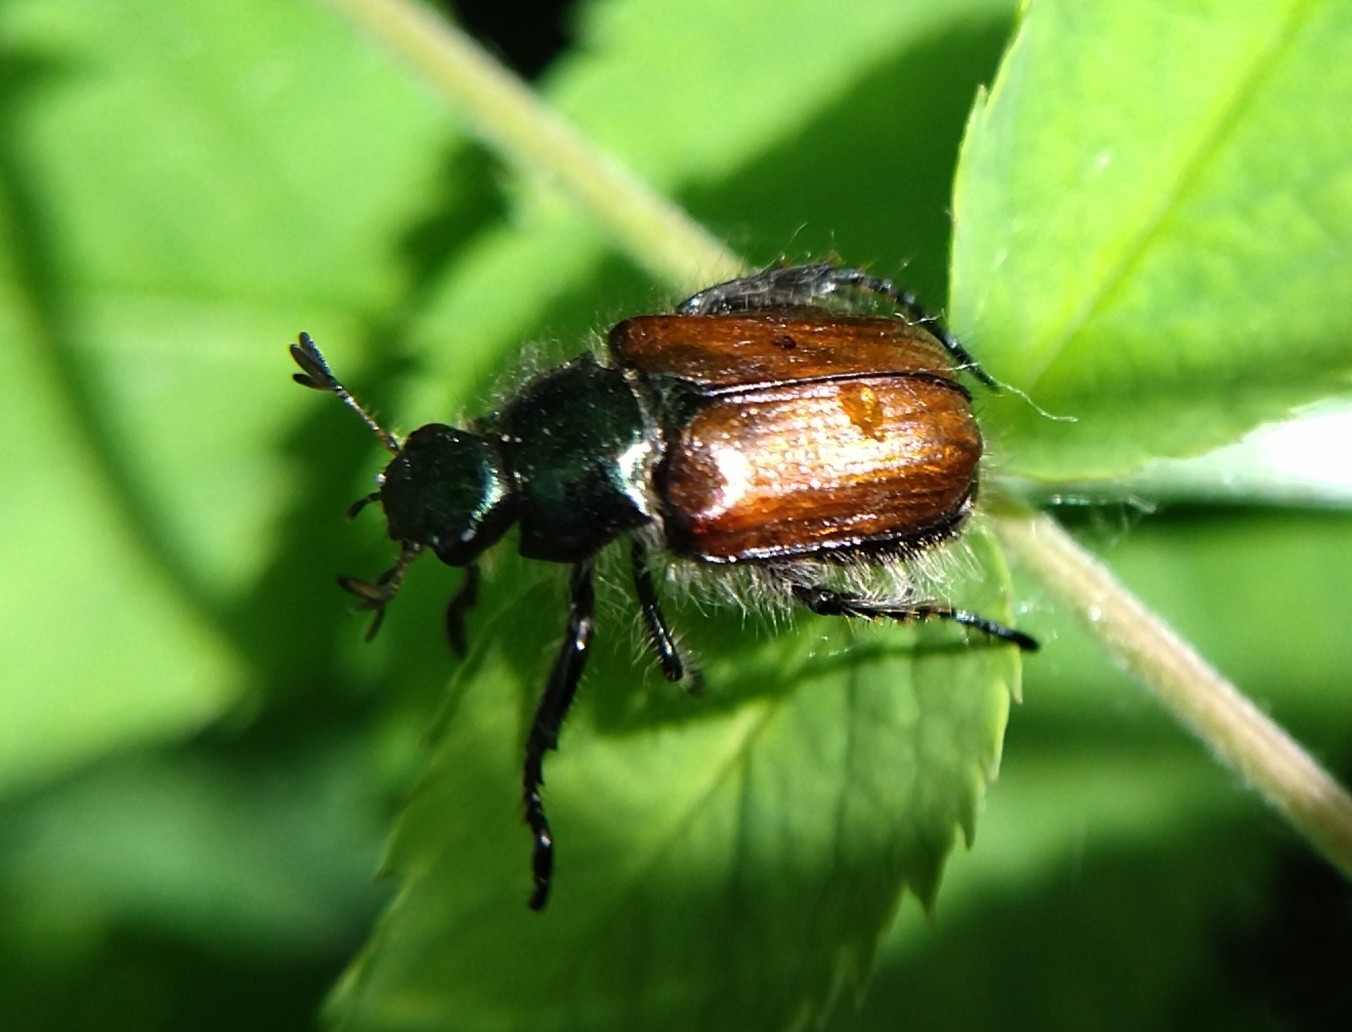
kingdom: Animalia
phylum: Arthropoda
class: Insecta
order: Coleoptera
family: Scarabaeidae
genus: Phyllopertha
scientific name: Phyllopertha horticola
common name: Garden chafer
